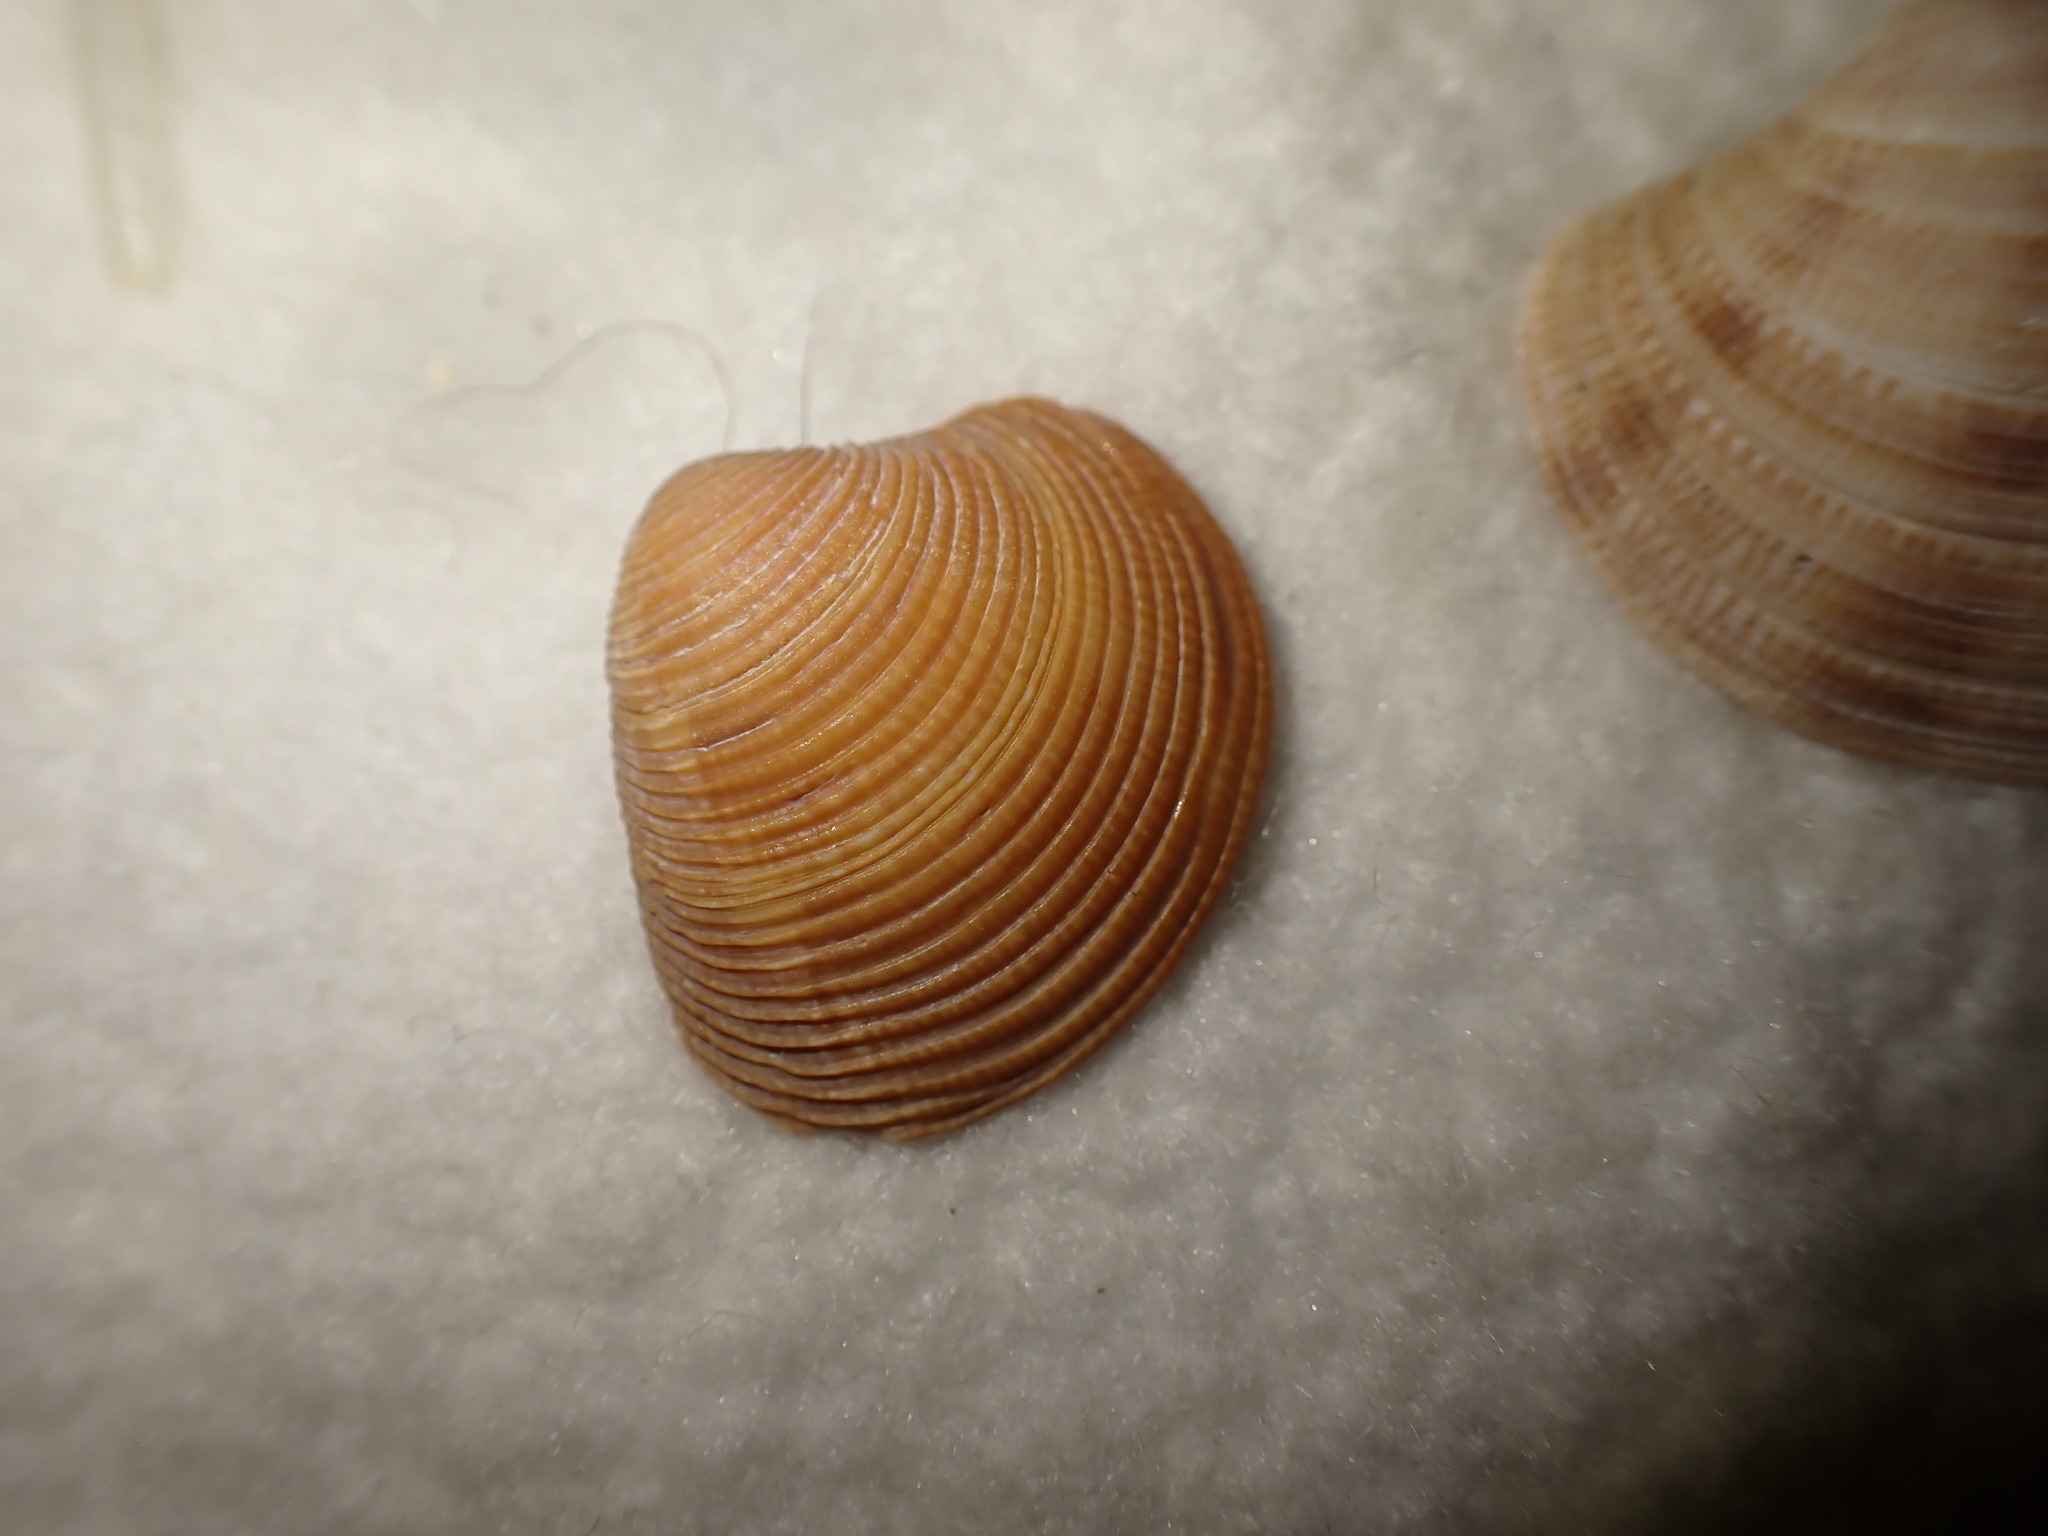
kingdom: Animalia
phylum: Mollusca
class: Bivalvia
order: Venerida
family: Veneridae
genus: Chamelea
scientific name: Chamelea striatula
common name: Striped venus
